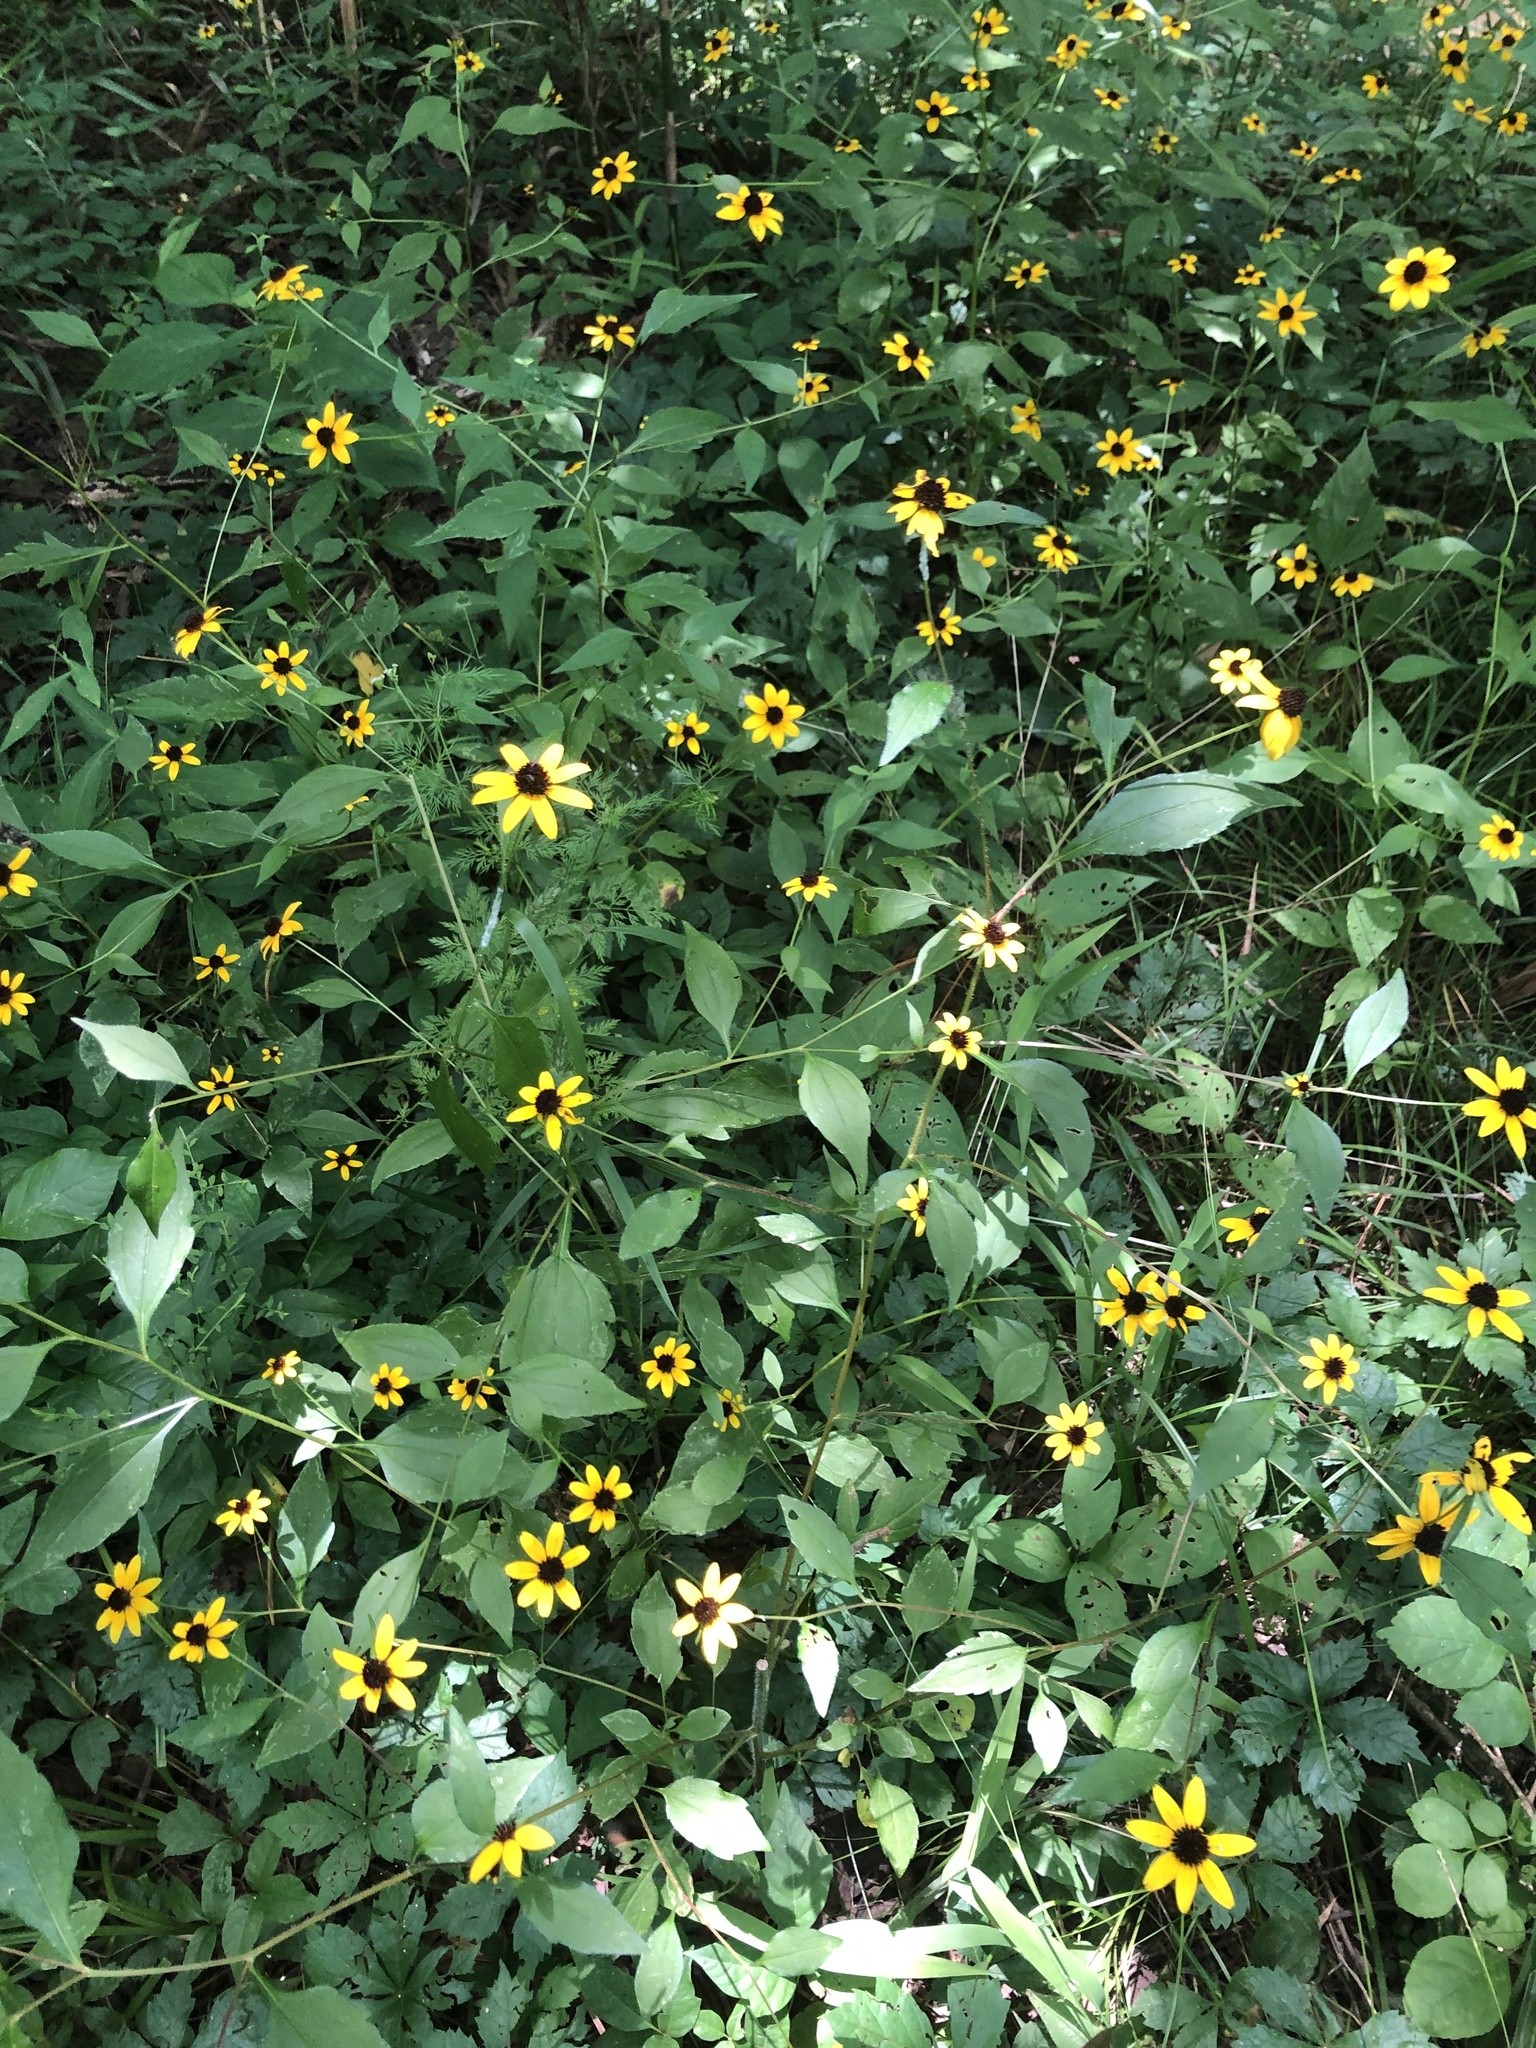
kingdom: Plantae
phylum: Tracheophyta
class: Magnoliopsida
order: Asterales
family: Asteraceae
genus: Rudbeckia
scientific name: Rudbeckia triloba
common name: Thin-leaved coneflower
